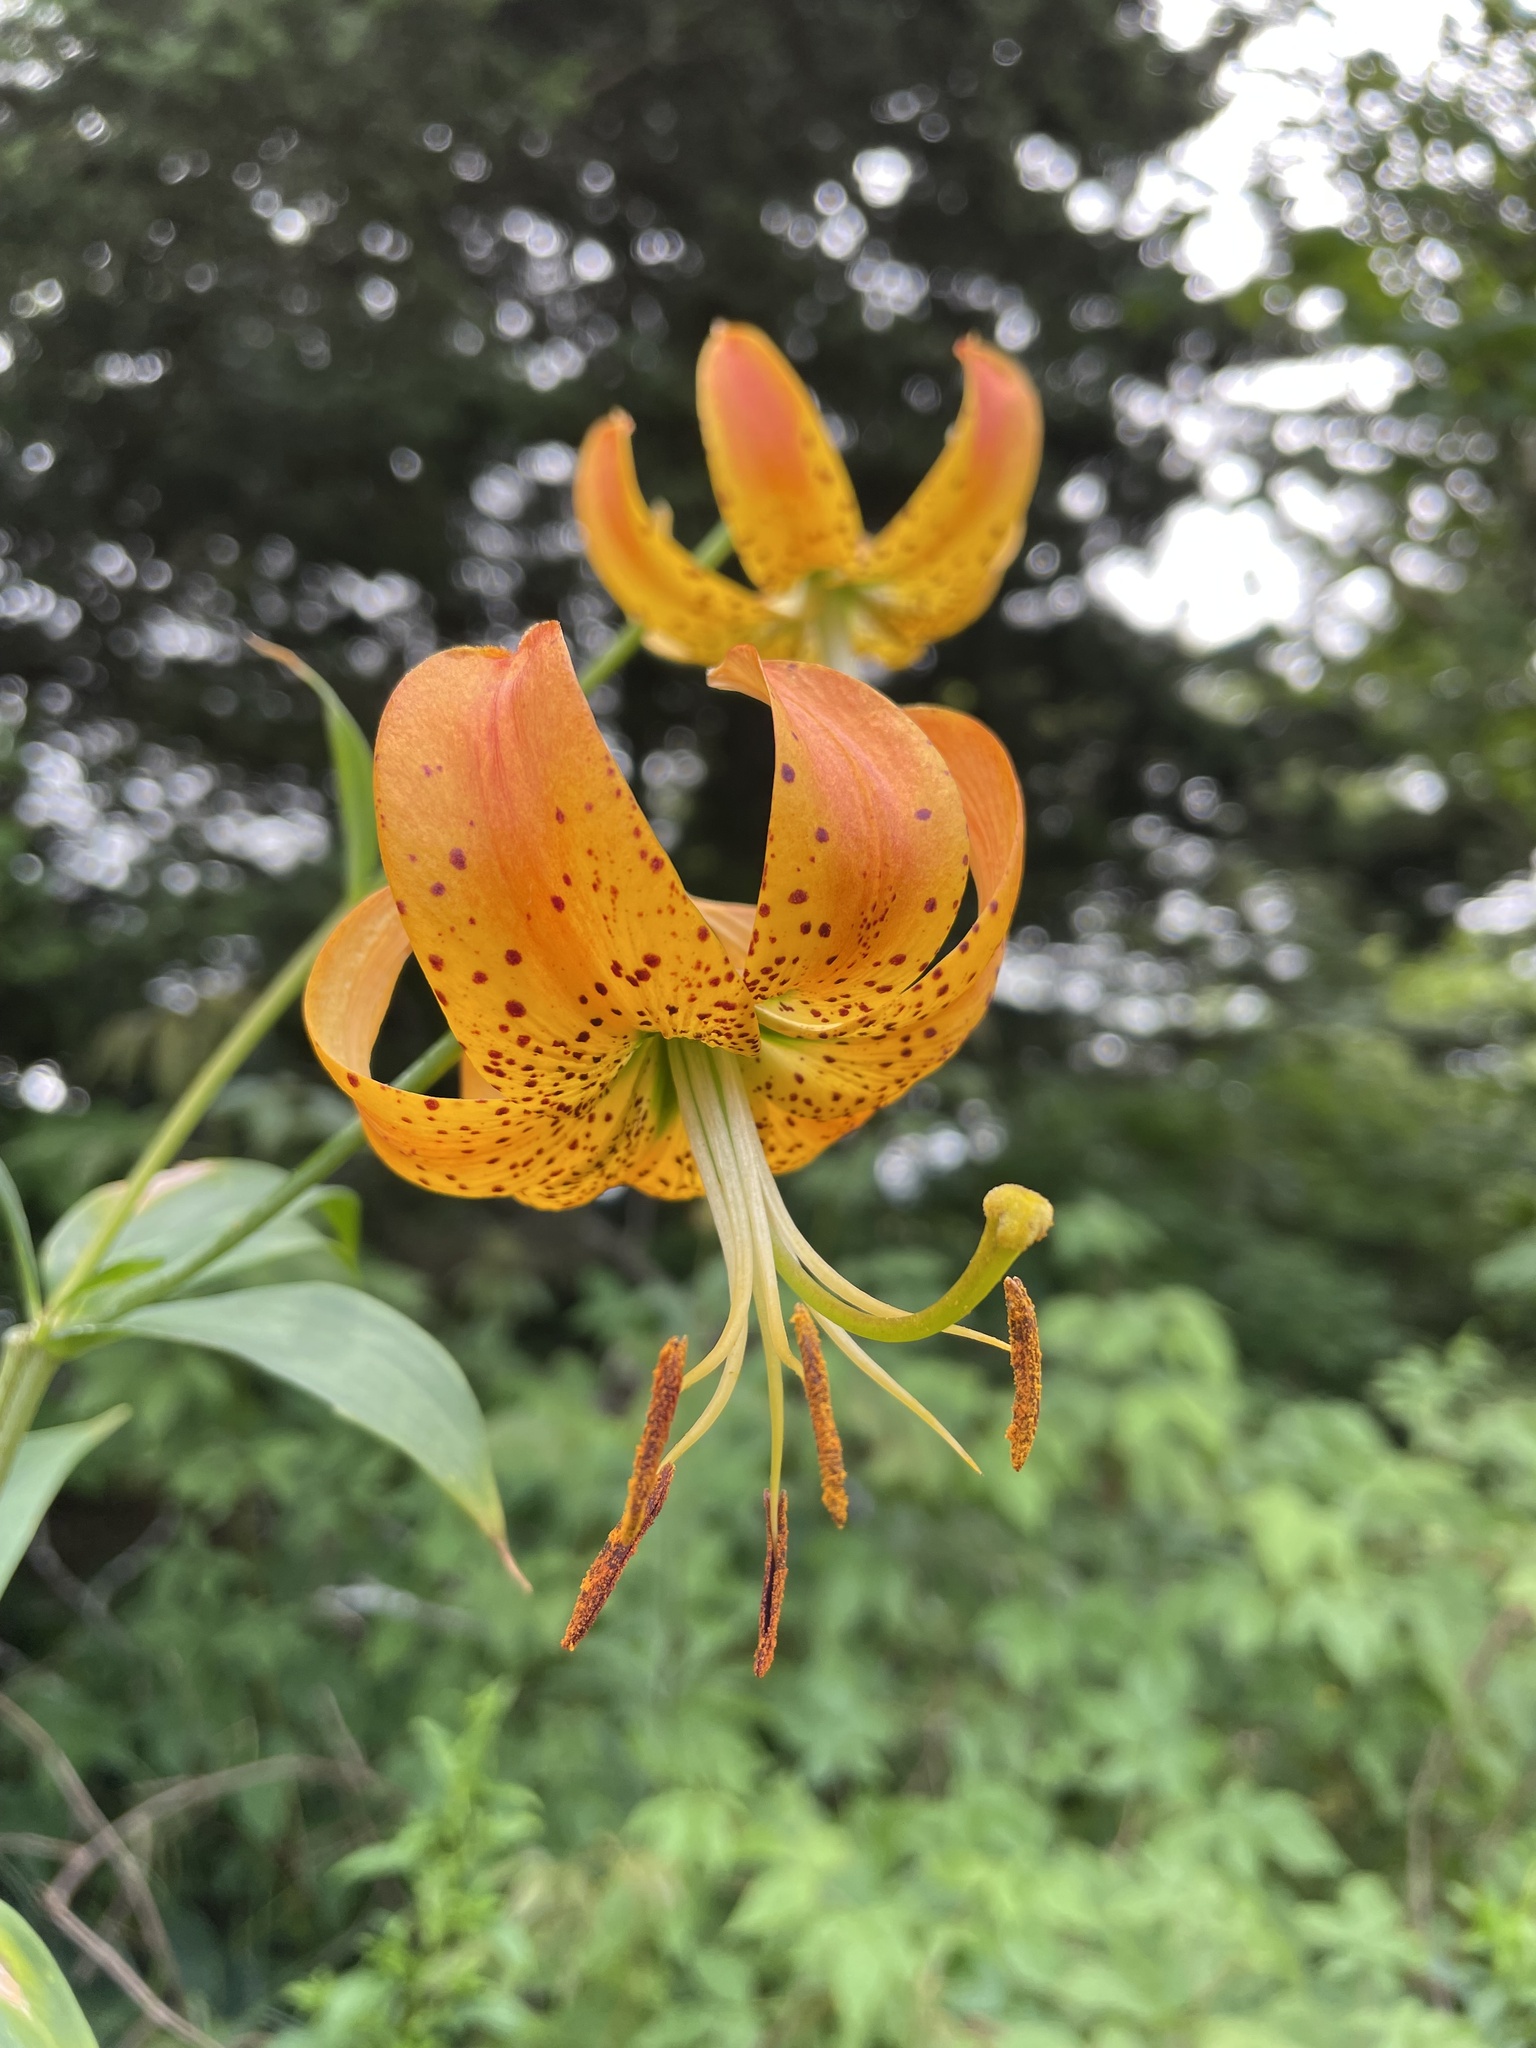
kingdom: Plantae
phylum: Tracheophyta
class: Liliopsida
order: Liliales
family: Liliaceae
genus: Lilium
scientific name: Lilium superbum
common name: American turk's-cap lily
